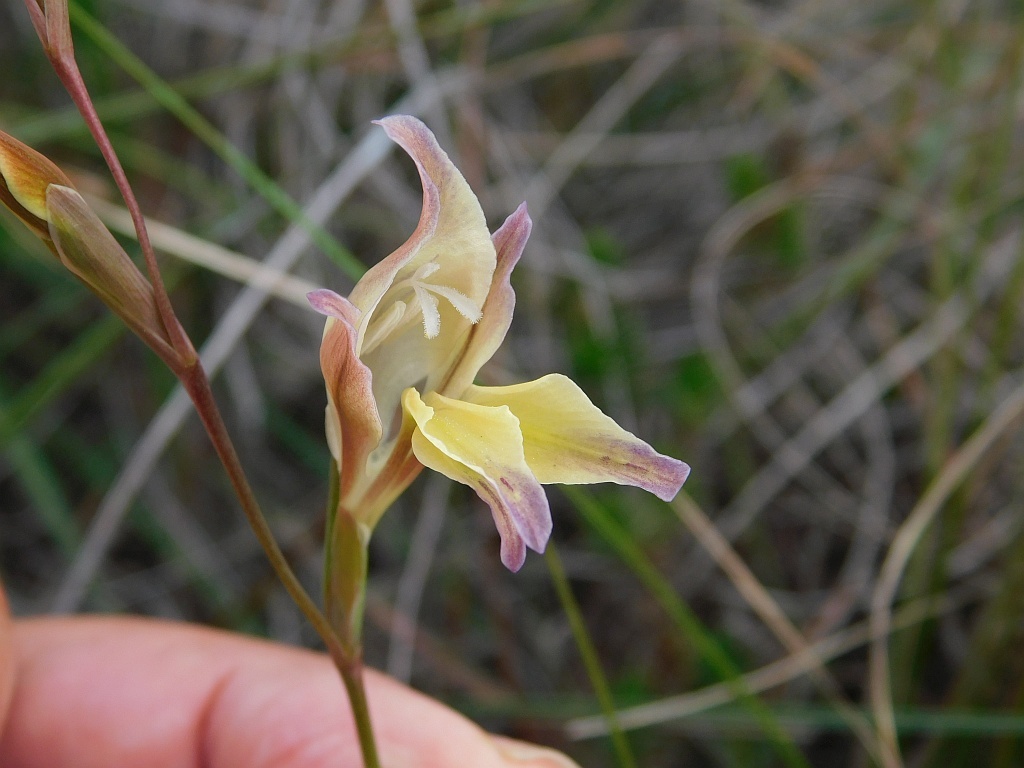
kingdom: Plantae
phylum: Tracheophyta
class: Liliopsida
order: Asparagales
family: Iridaceae
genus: Gladiolus
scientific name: Gladiolus permeabilis
